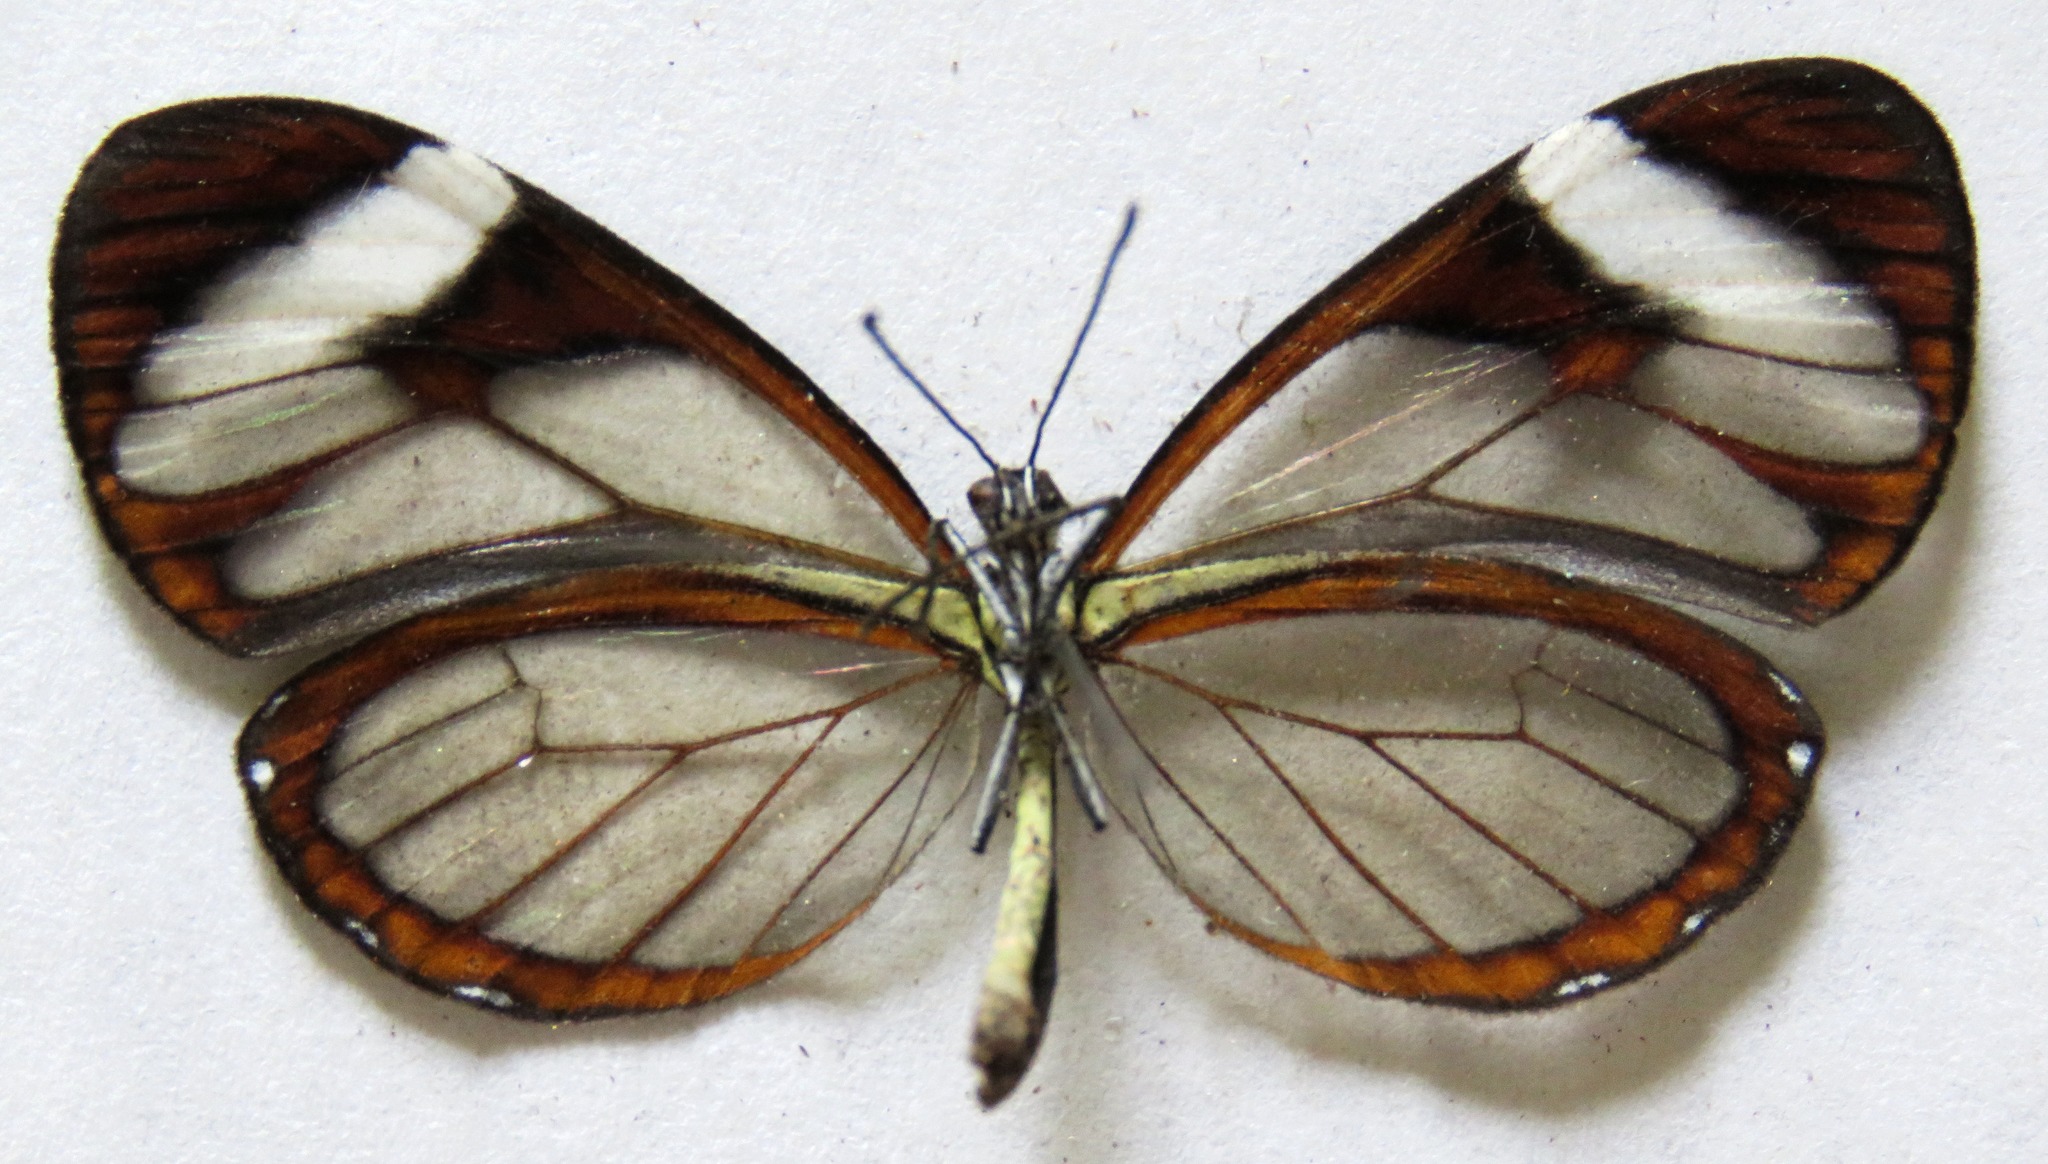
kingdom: Animalia
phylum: Arthropoda
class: Insecta
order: Lepidoptera
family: Nymphalidae
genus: Ithomia
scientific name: Ithomia patilla
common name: Patilla clearwing
